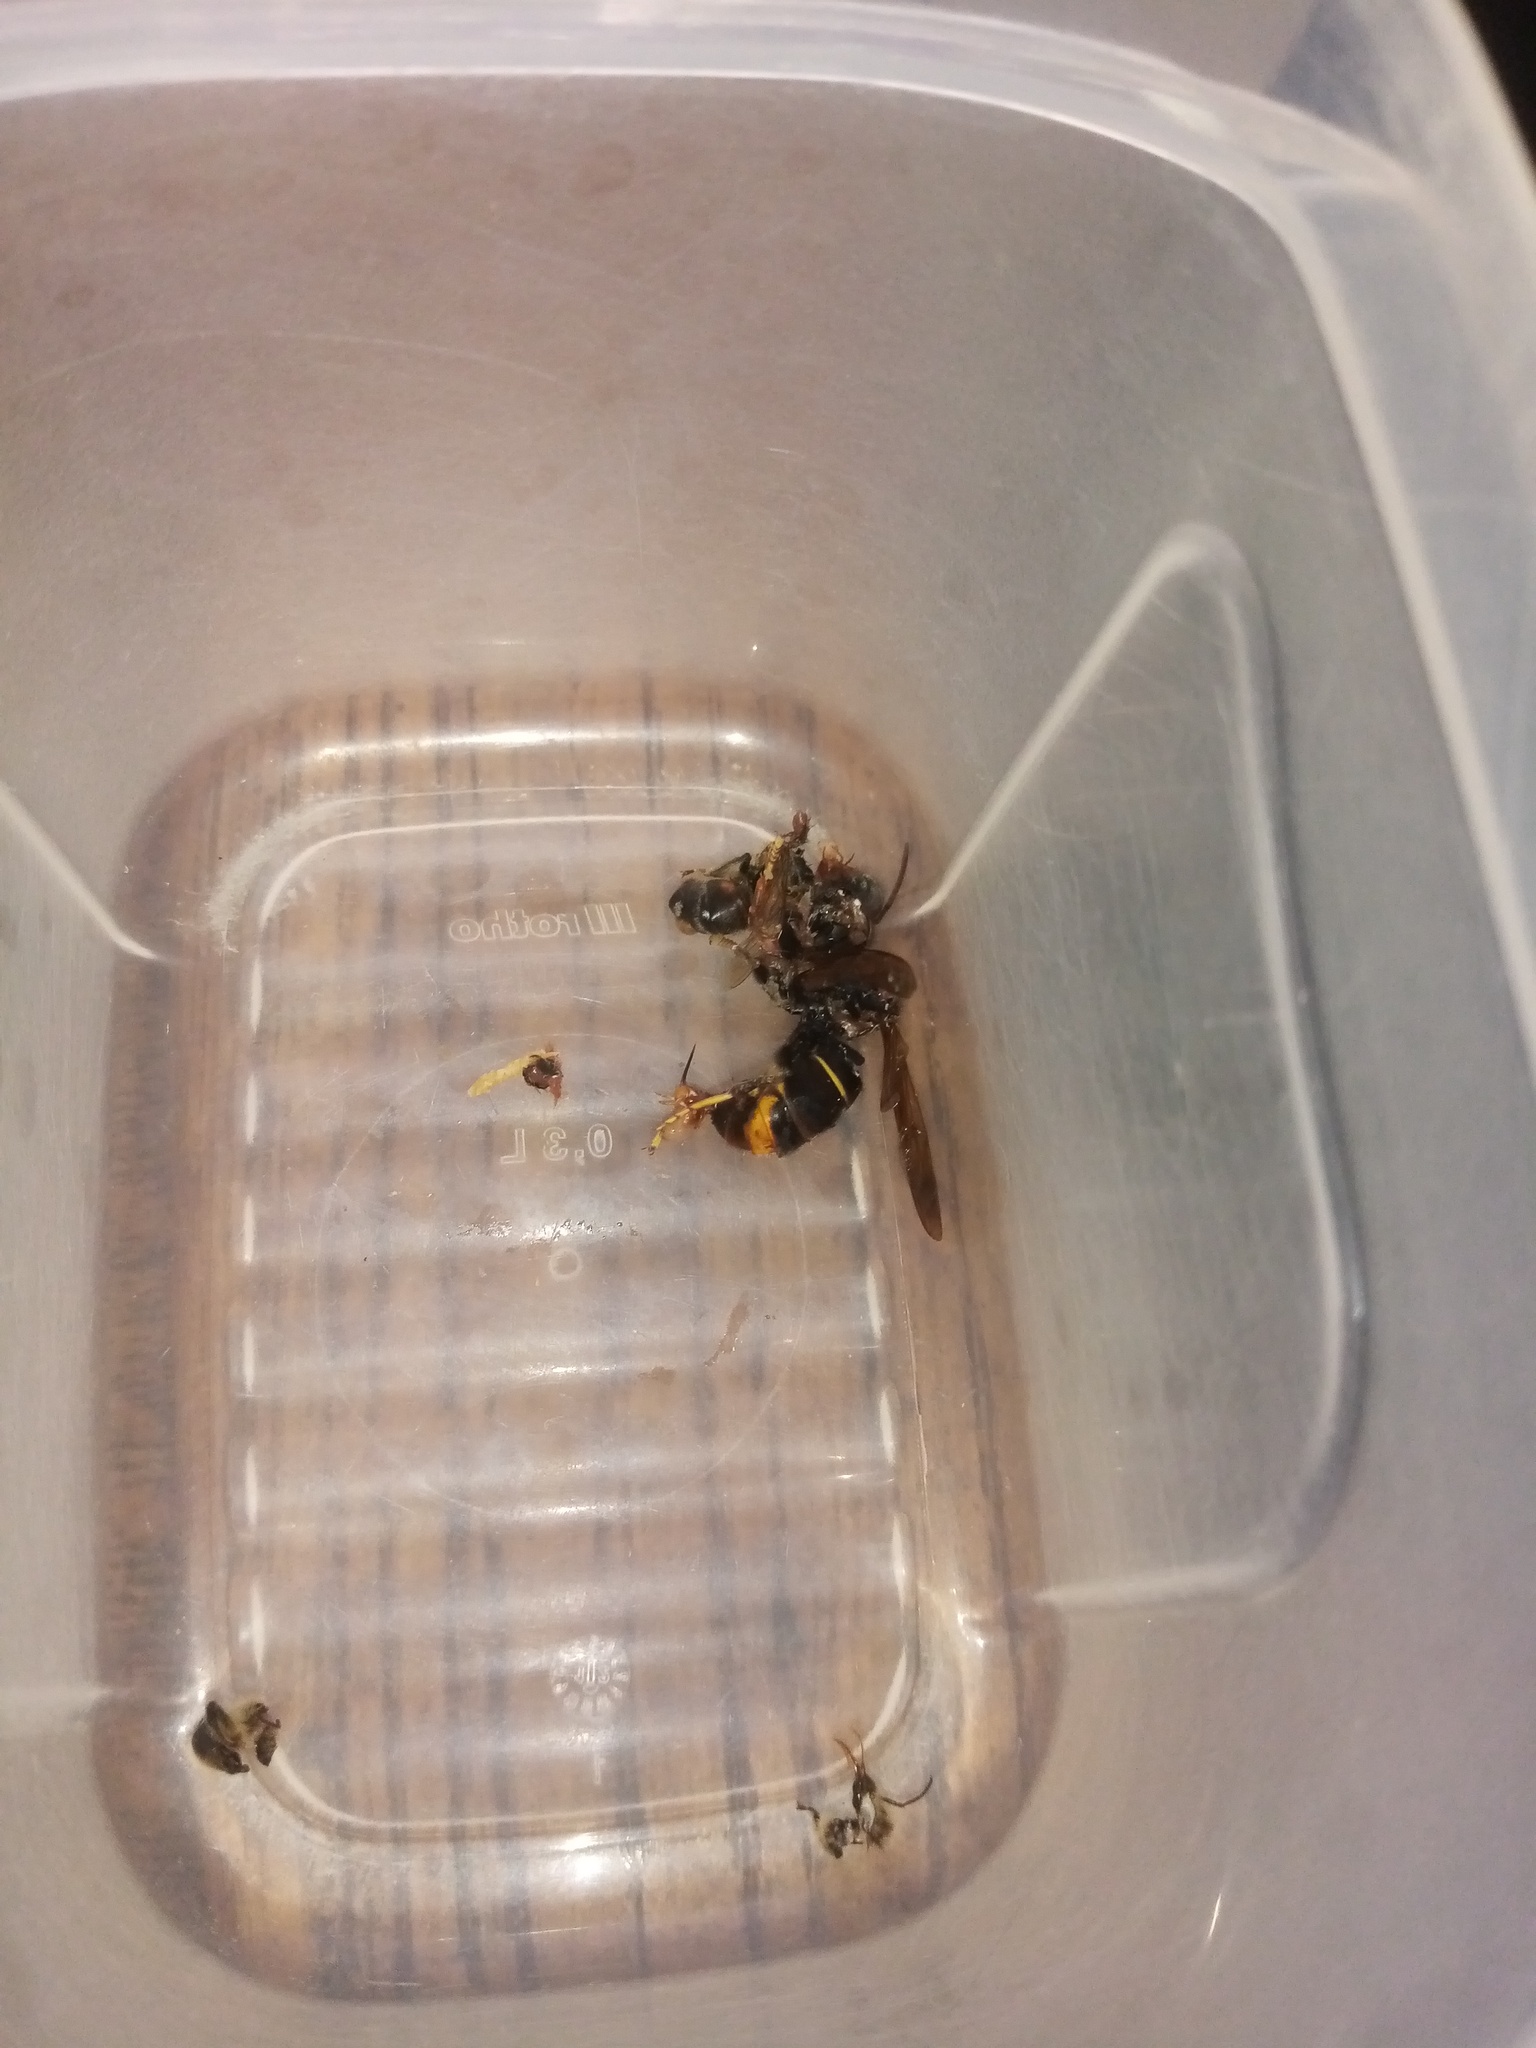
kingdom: Animalia
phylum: Arthropoda
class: Insecta
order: Hymenoptera
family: Vespidae
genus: Vespa
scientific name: Vespa velutina
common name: Asian hornet
